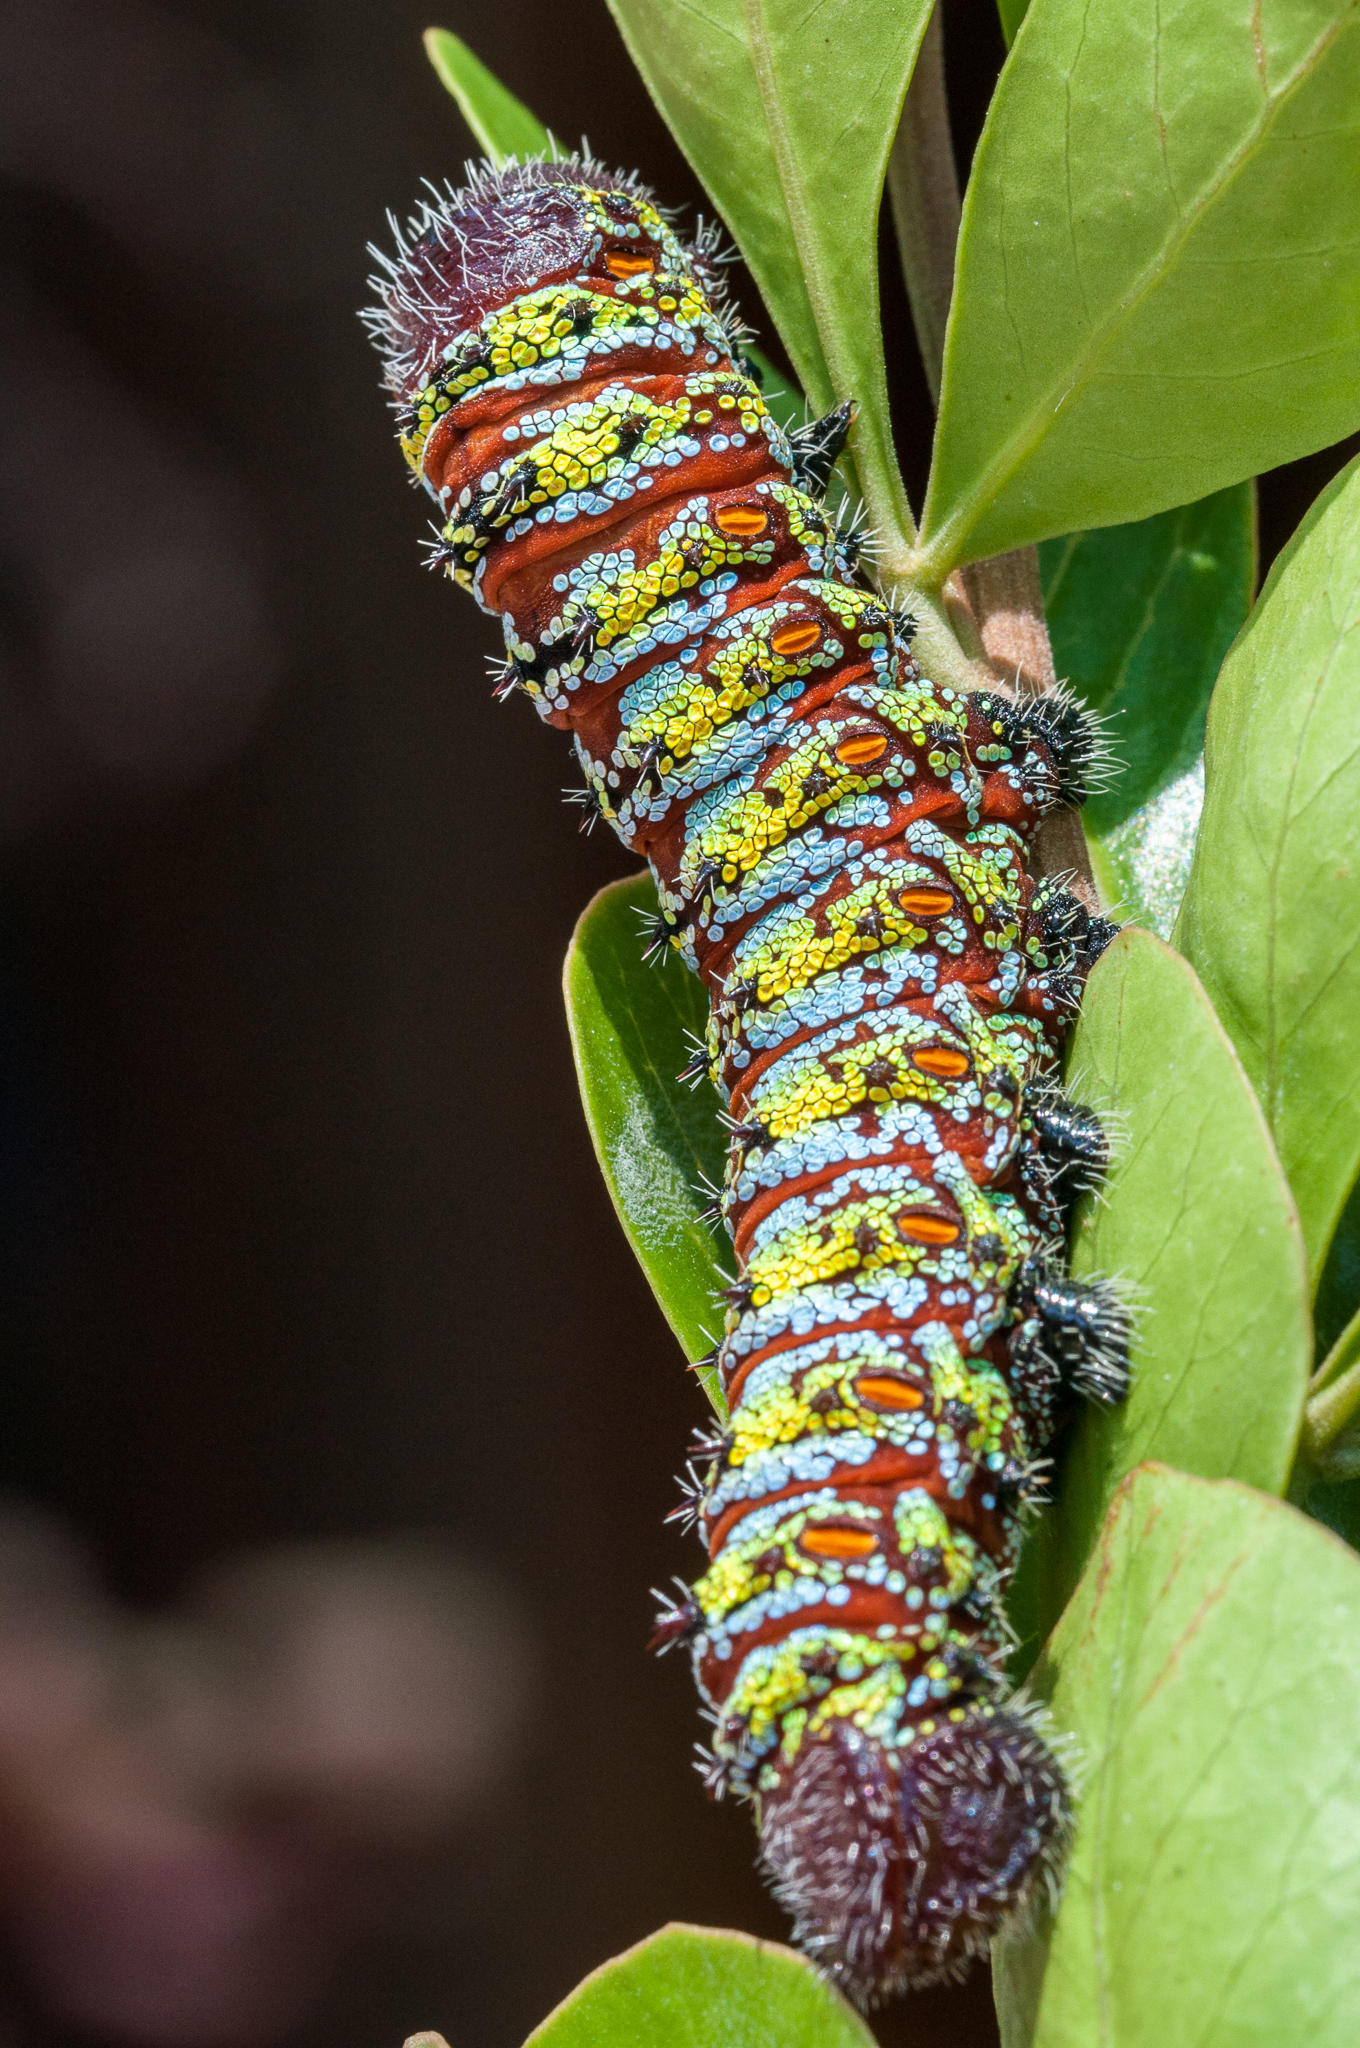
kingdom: Animalia
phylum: Arthropoda
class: Insecta
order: Lepidoptera
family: Saturniidae
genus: Nudaurelia
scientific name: Nudaurelia cytherea
